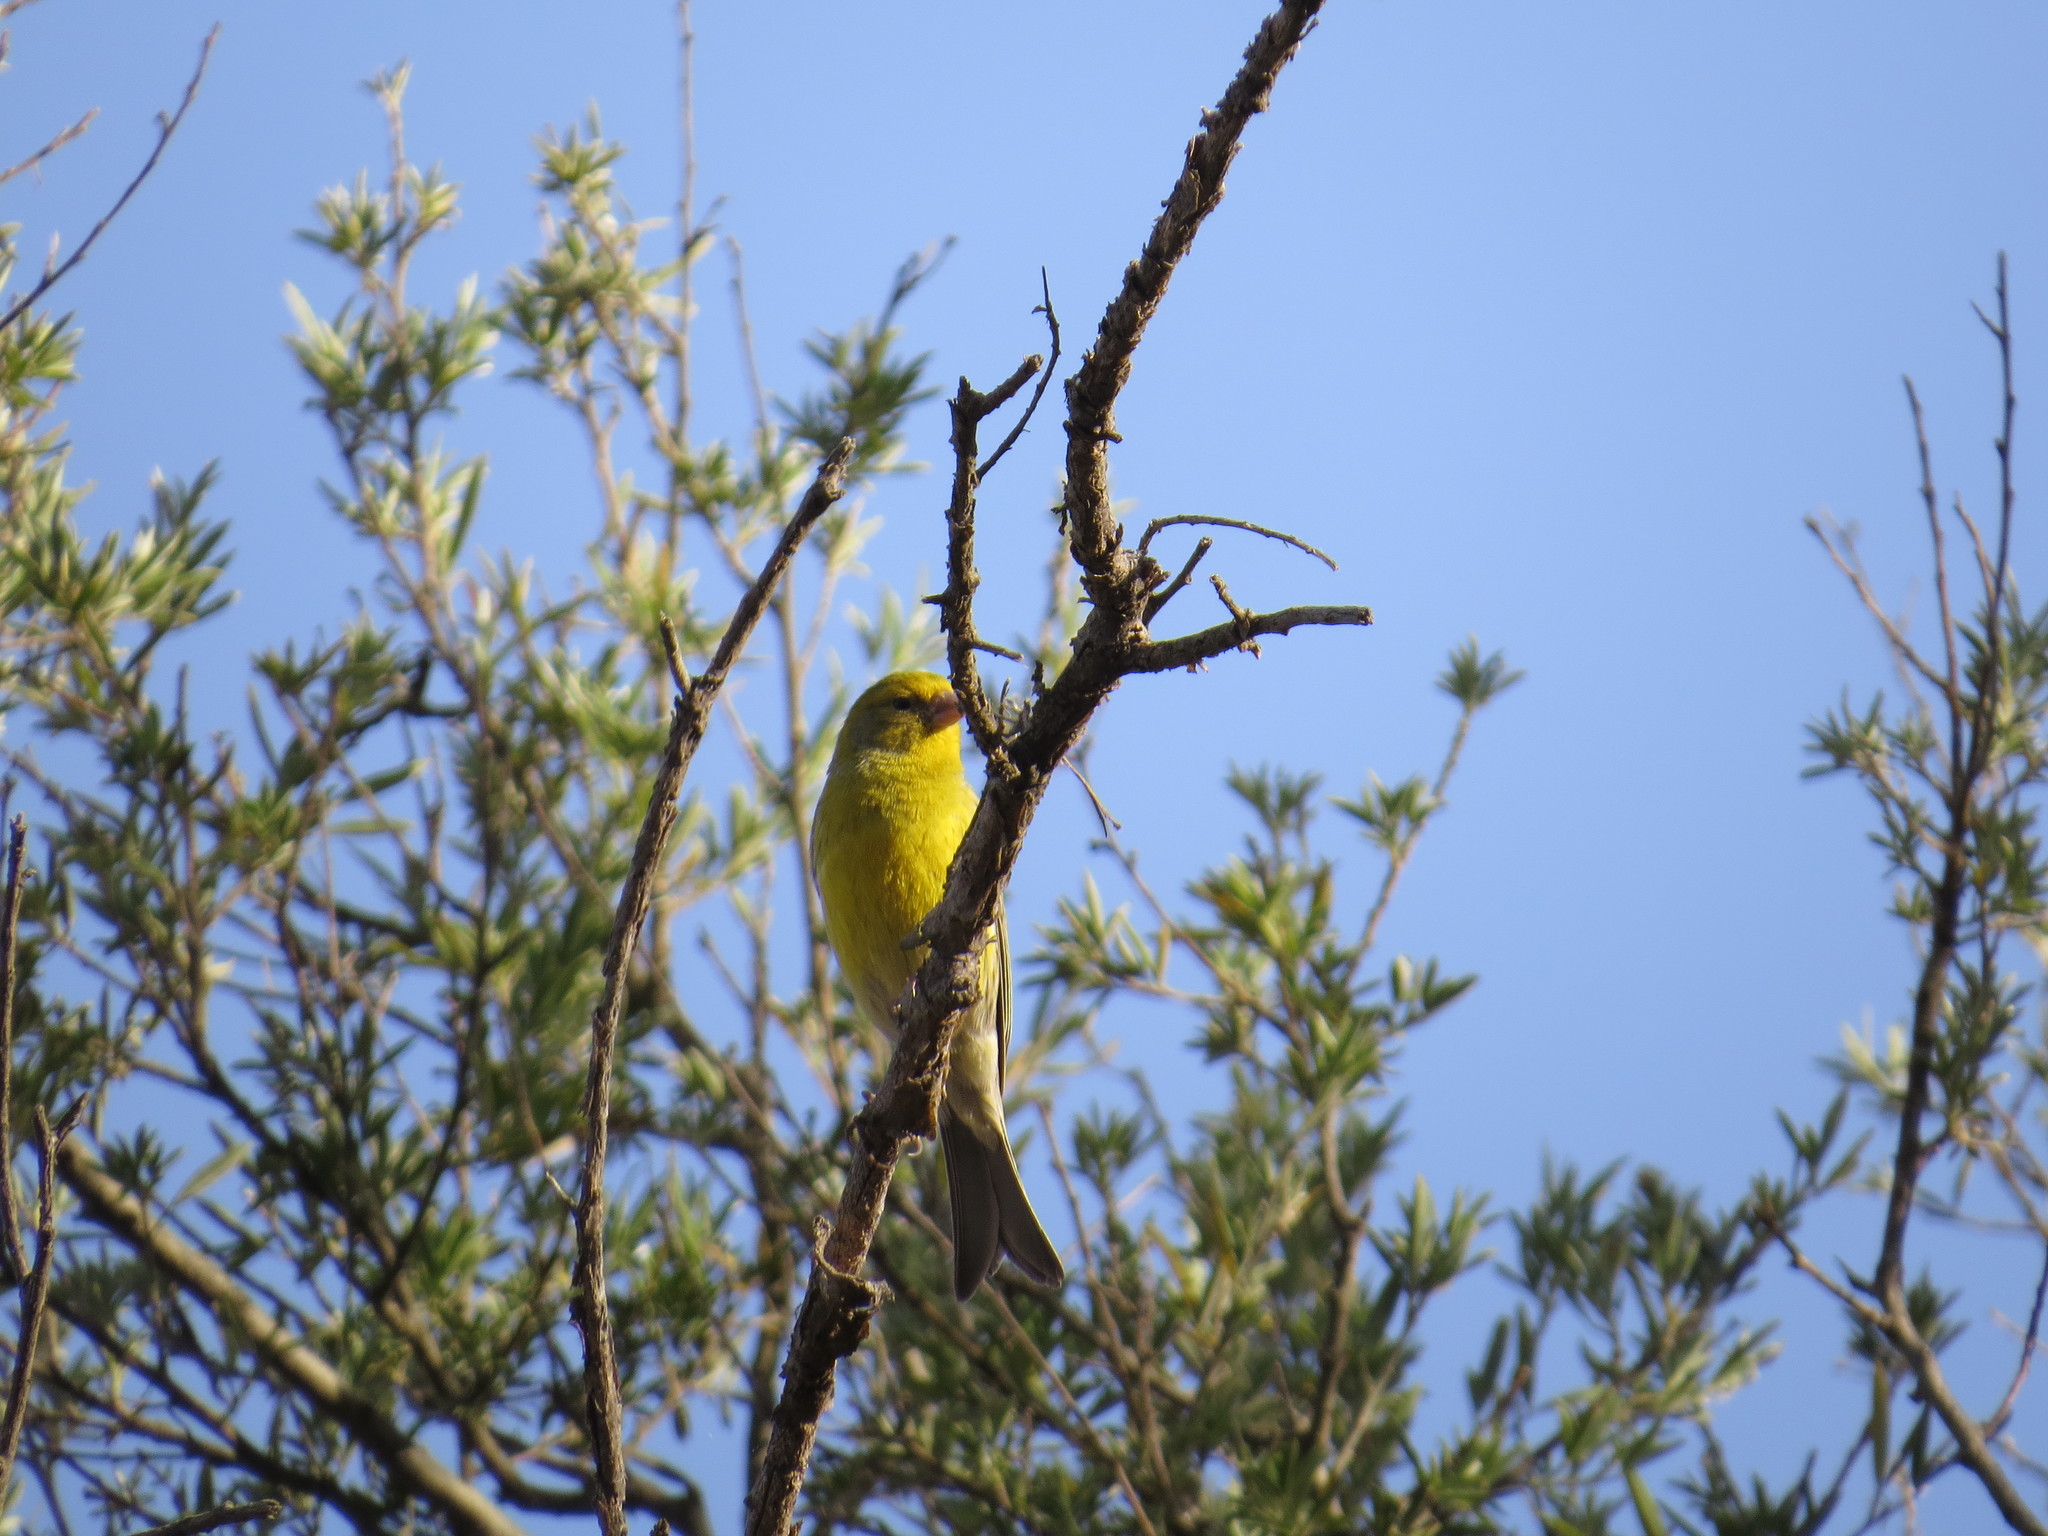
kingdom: Animalia
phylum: Chordata
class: Aves
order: Passeriformes
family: Fringillidae
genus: Serinus
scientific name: Serinus canaria
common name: Atlantic canary
